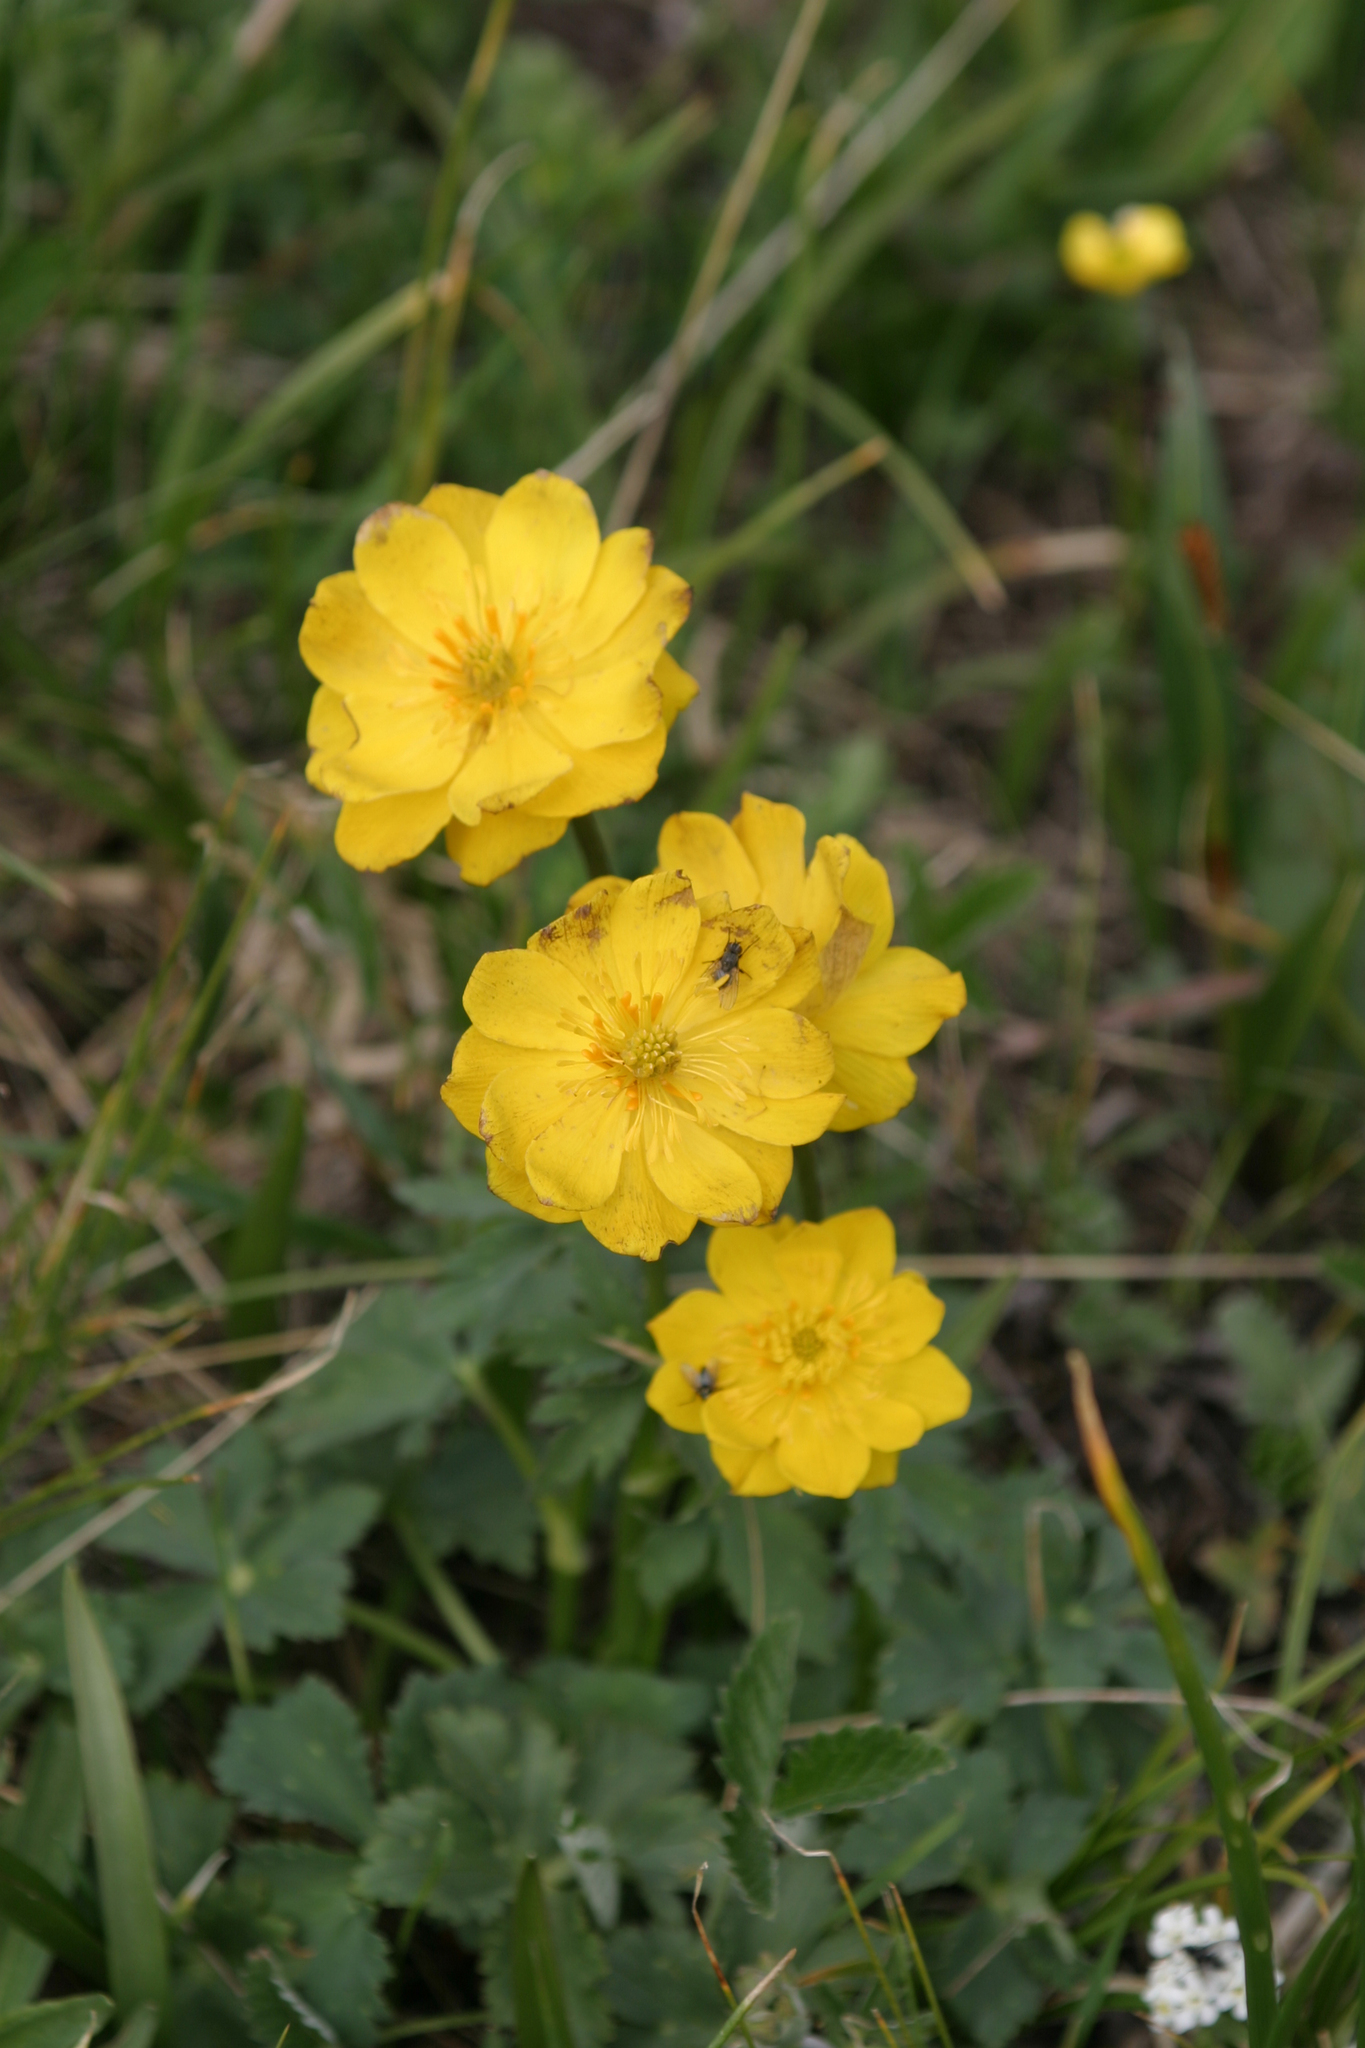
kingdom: Plantae
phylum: Tracheophyta
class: Magnoliopsida
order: Ranunculales
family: Ranunculaceae
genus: Trollius
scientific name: Trollius dschungaricus
